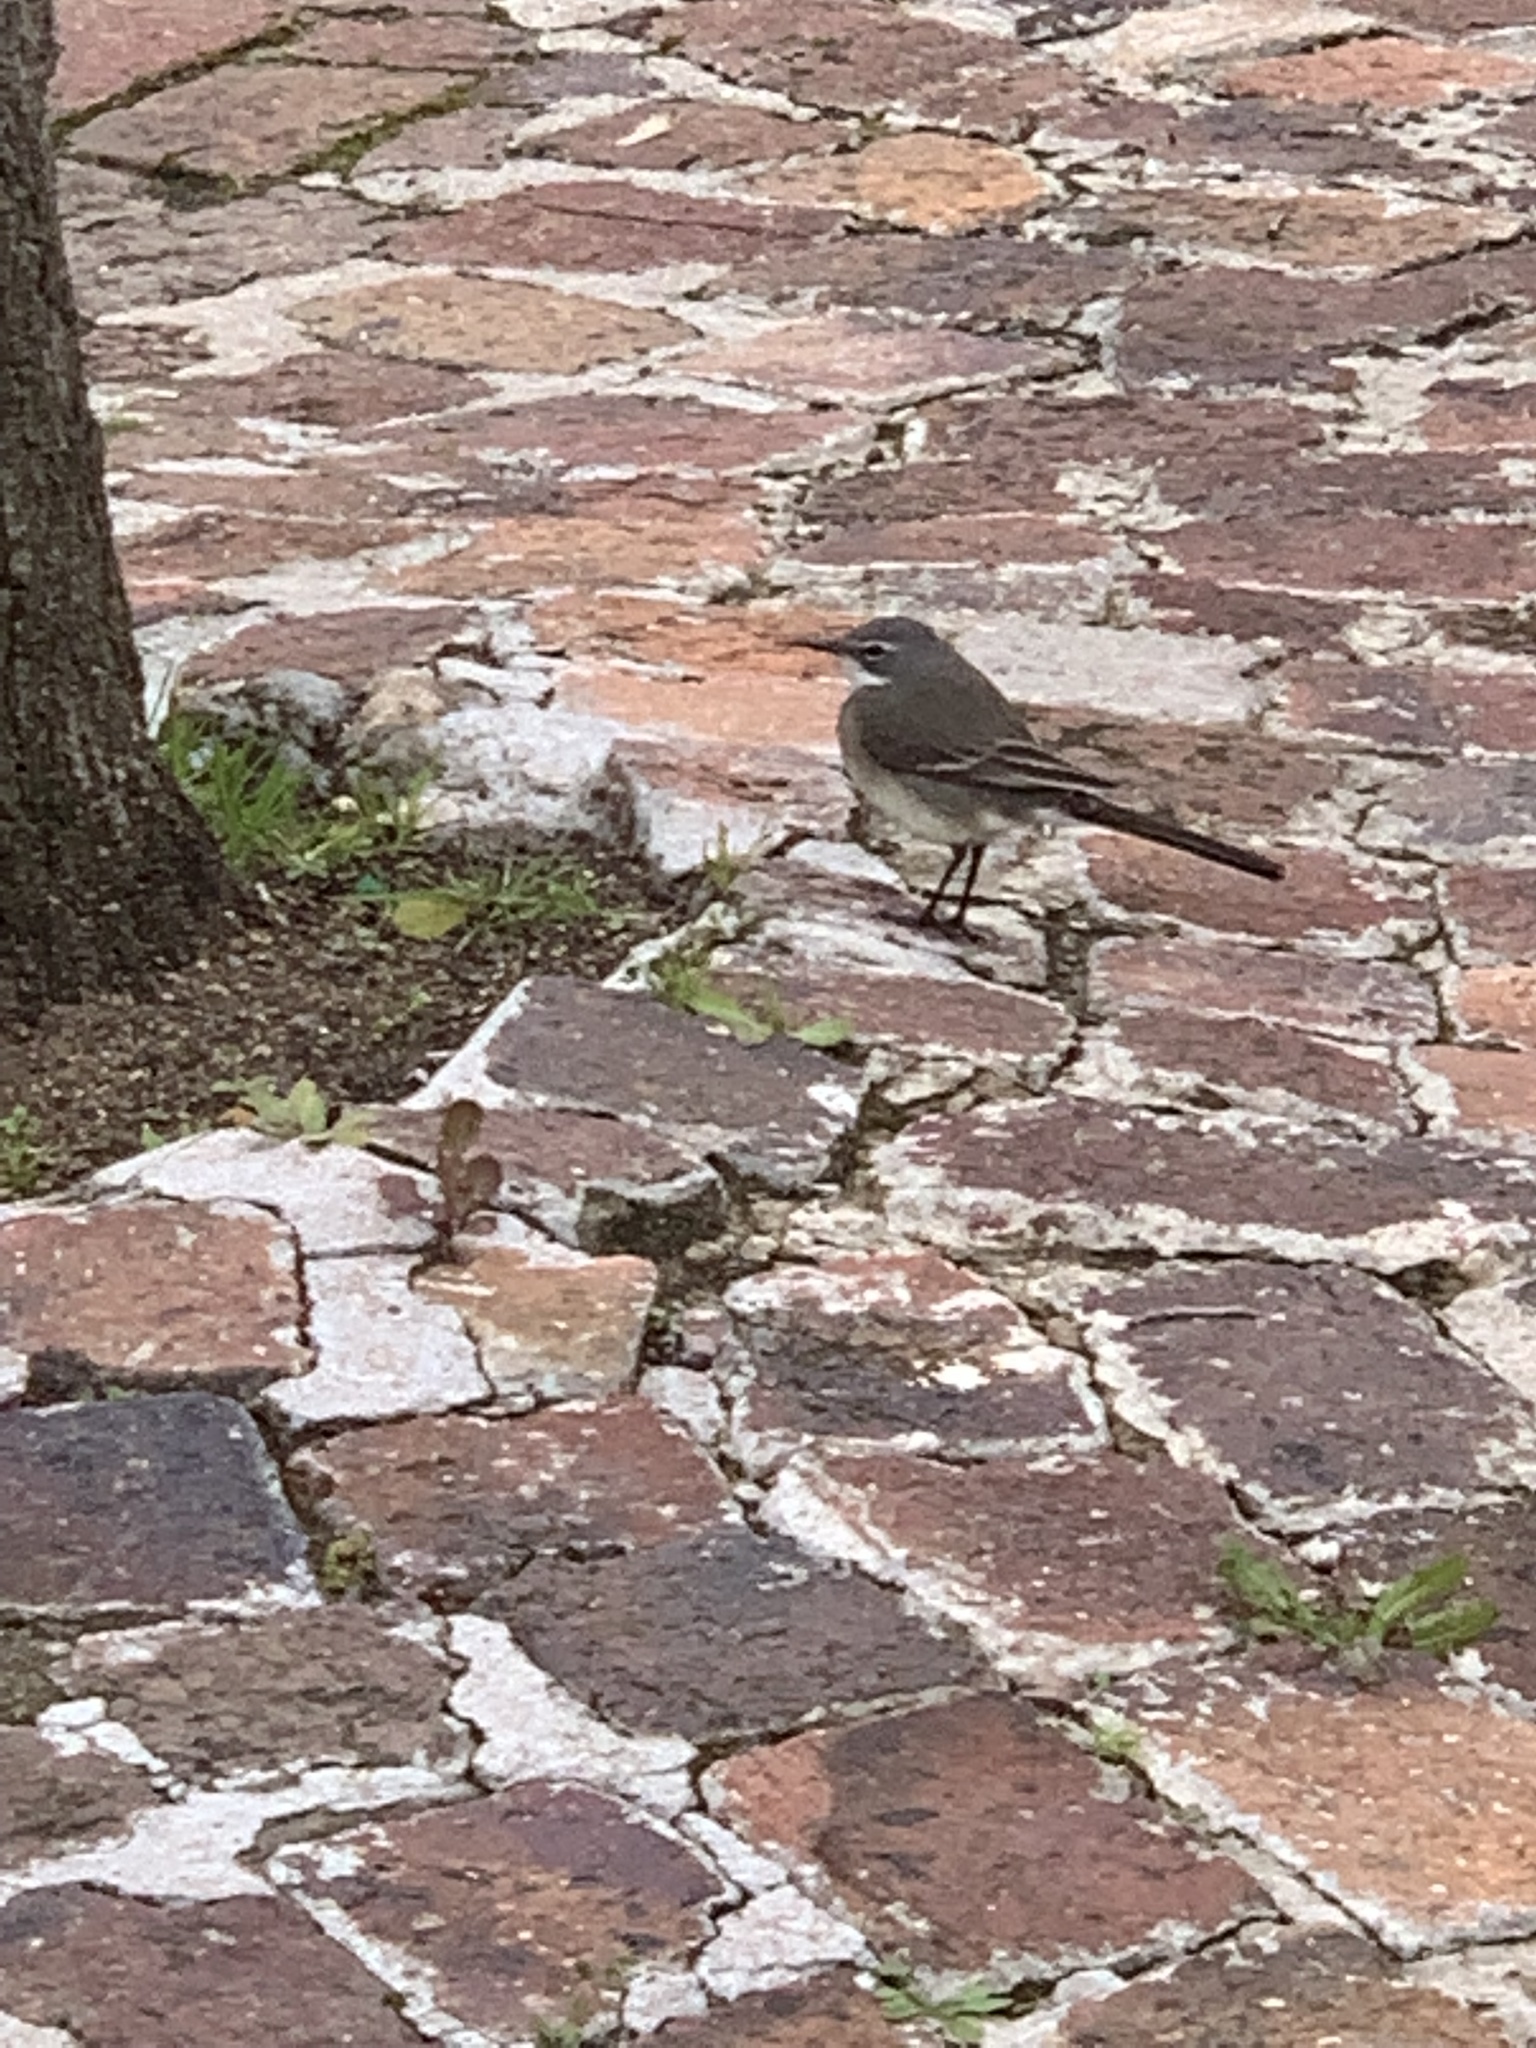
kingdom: Animalia
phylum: Chordata
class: Aves
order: Passeriformes
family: Motacillidae
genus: Motacilla
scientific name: Motacilla capensis
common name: Cape wagtail
